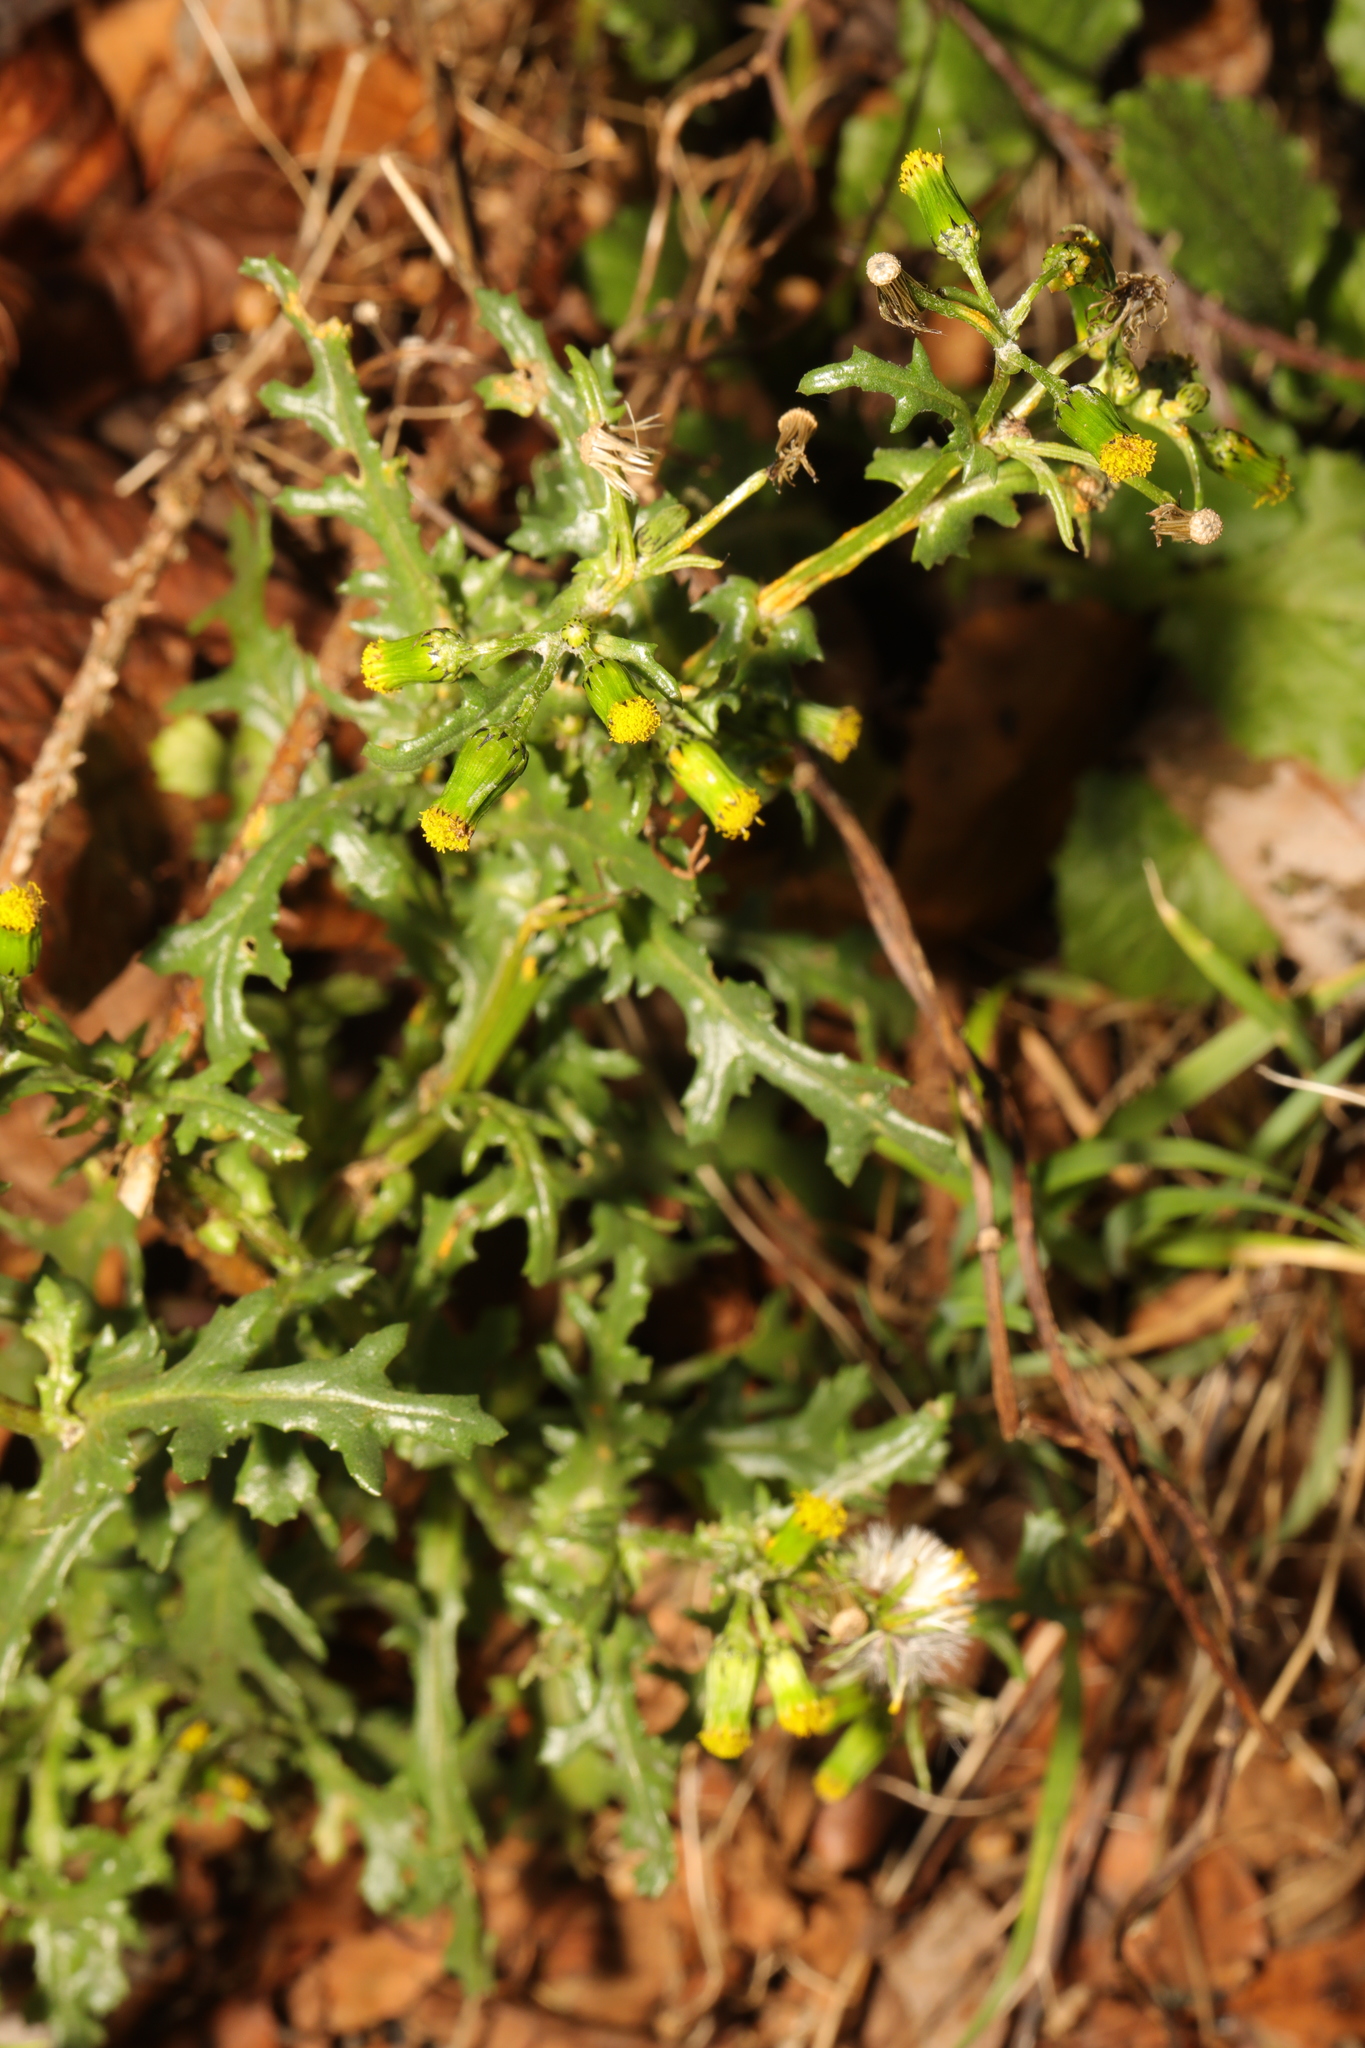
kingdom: Plantae
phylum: Tracheophyta
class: Magnoliopsida
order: Asterales
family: Asteraceae
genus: Senecio
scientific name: Senecio vulgaris
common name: Old-man-in-the-spring
